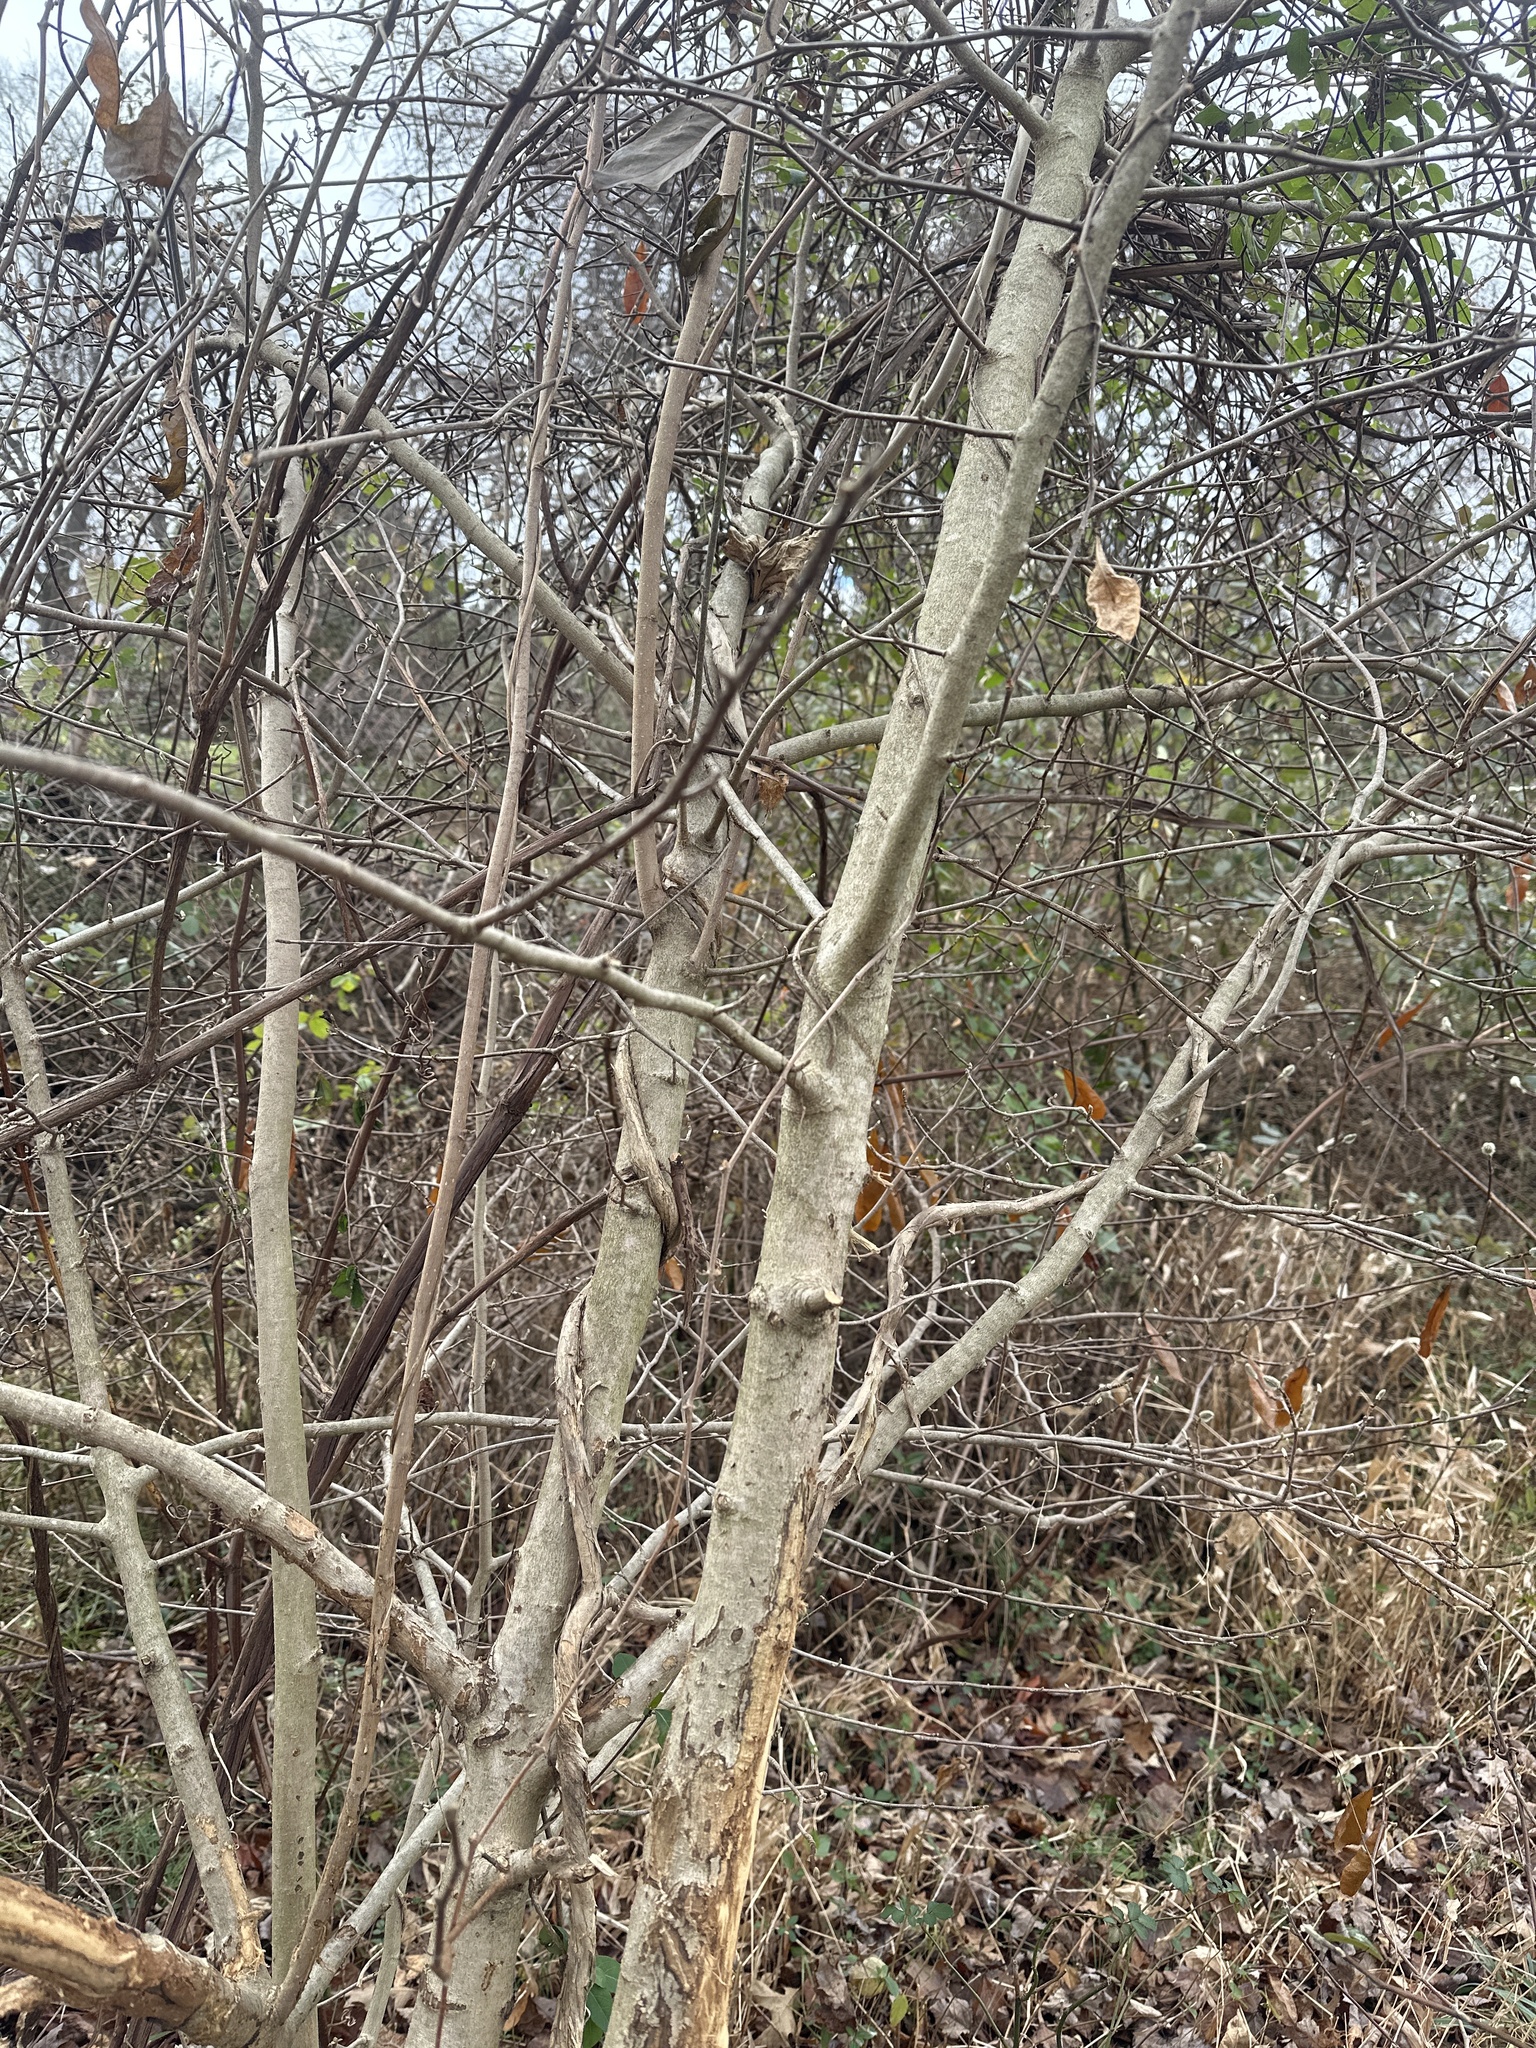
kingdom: Plantae
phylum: Tracheophyta
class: Magnoliopsida
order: Malpighiales
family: Salicaceae
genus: Salix
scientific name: Salix discolor
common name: Glaucous willow
